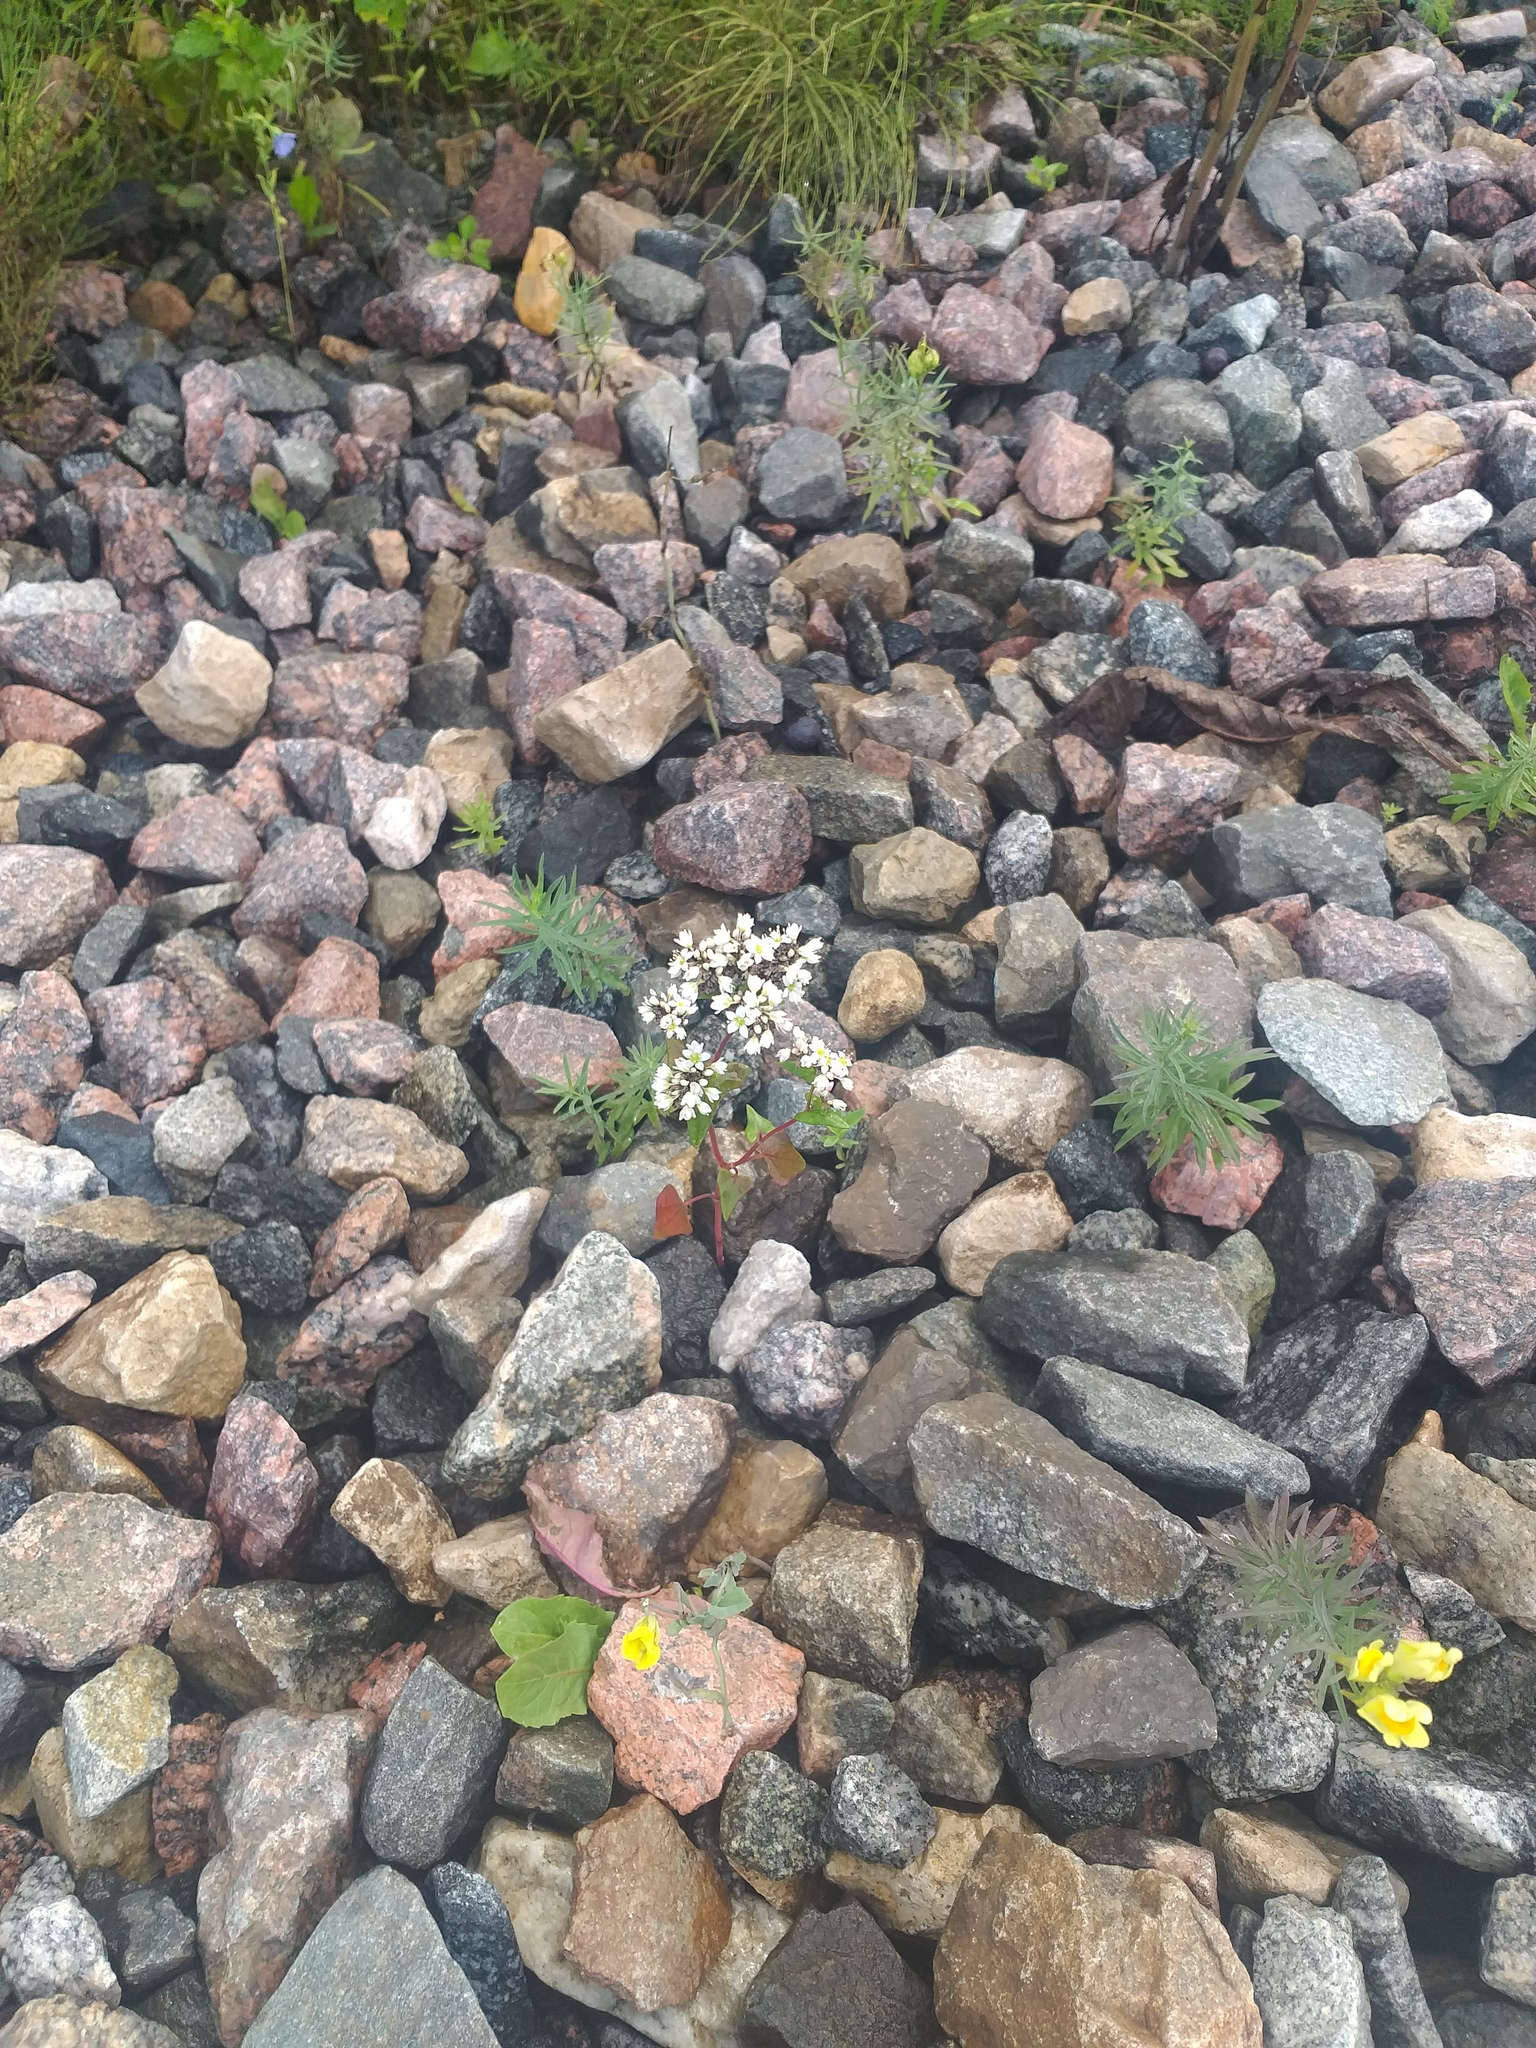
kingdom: Plantae
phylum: Tracheophyta
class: Magnoliopsida
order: Caryophyllales
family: Polygonaceae
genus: Fagopyrum
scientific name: Fagopyrum esculentum
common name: Buckwheat
